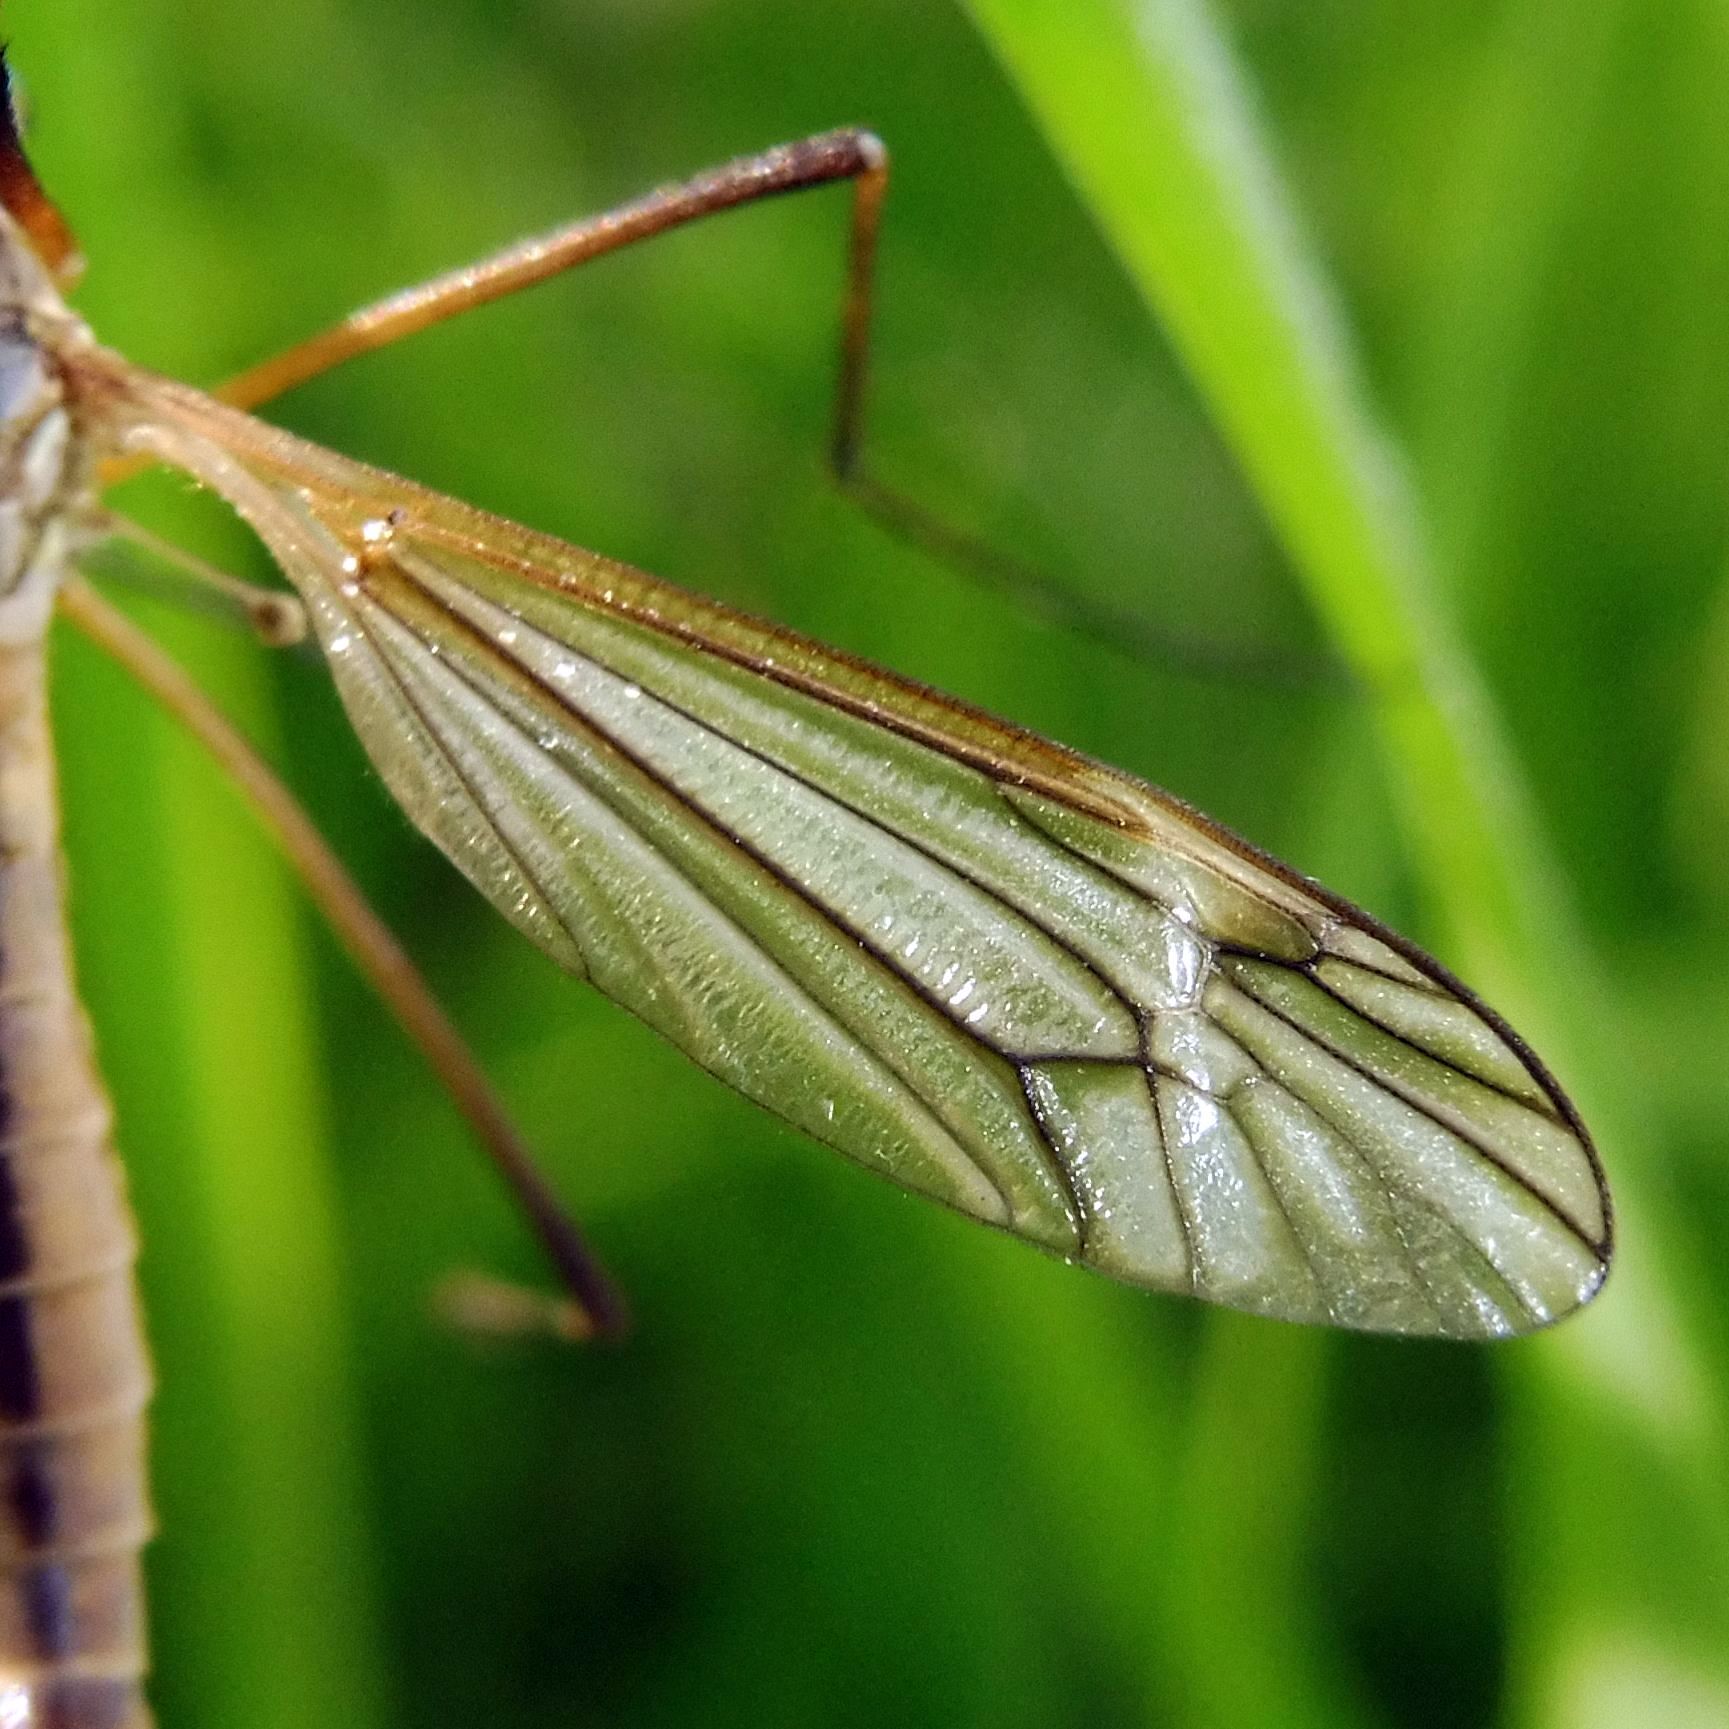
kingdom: Animalia
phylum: Arthropoda
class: Insecta
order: Diptera
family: Tipulidae
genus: Tipula
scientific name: Tipula vernalis
